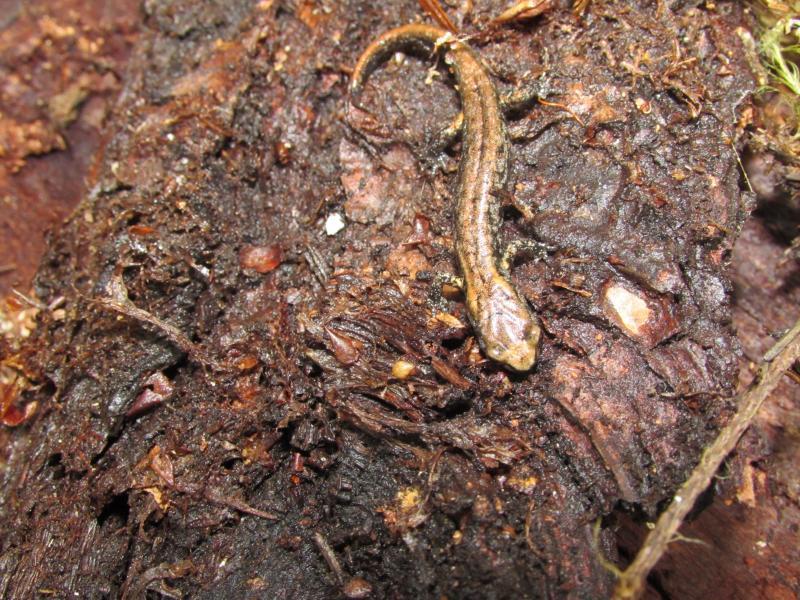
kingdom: Animalia
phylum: Chordata
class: Amphibia
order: Caudata
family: Plethodontidae
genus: Aneides
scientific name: Aneides ferreus
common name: Clouded salamander
